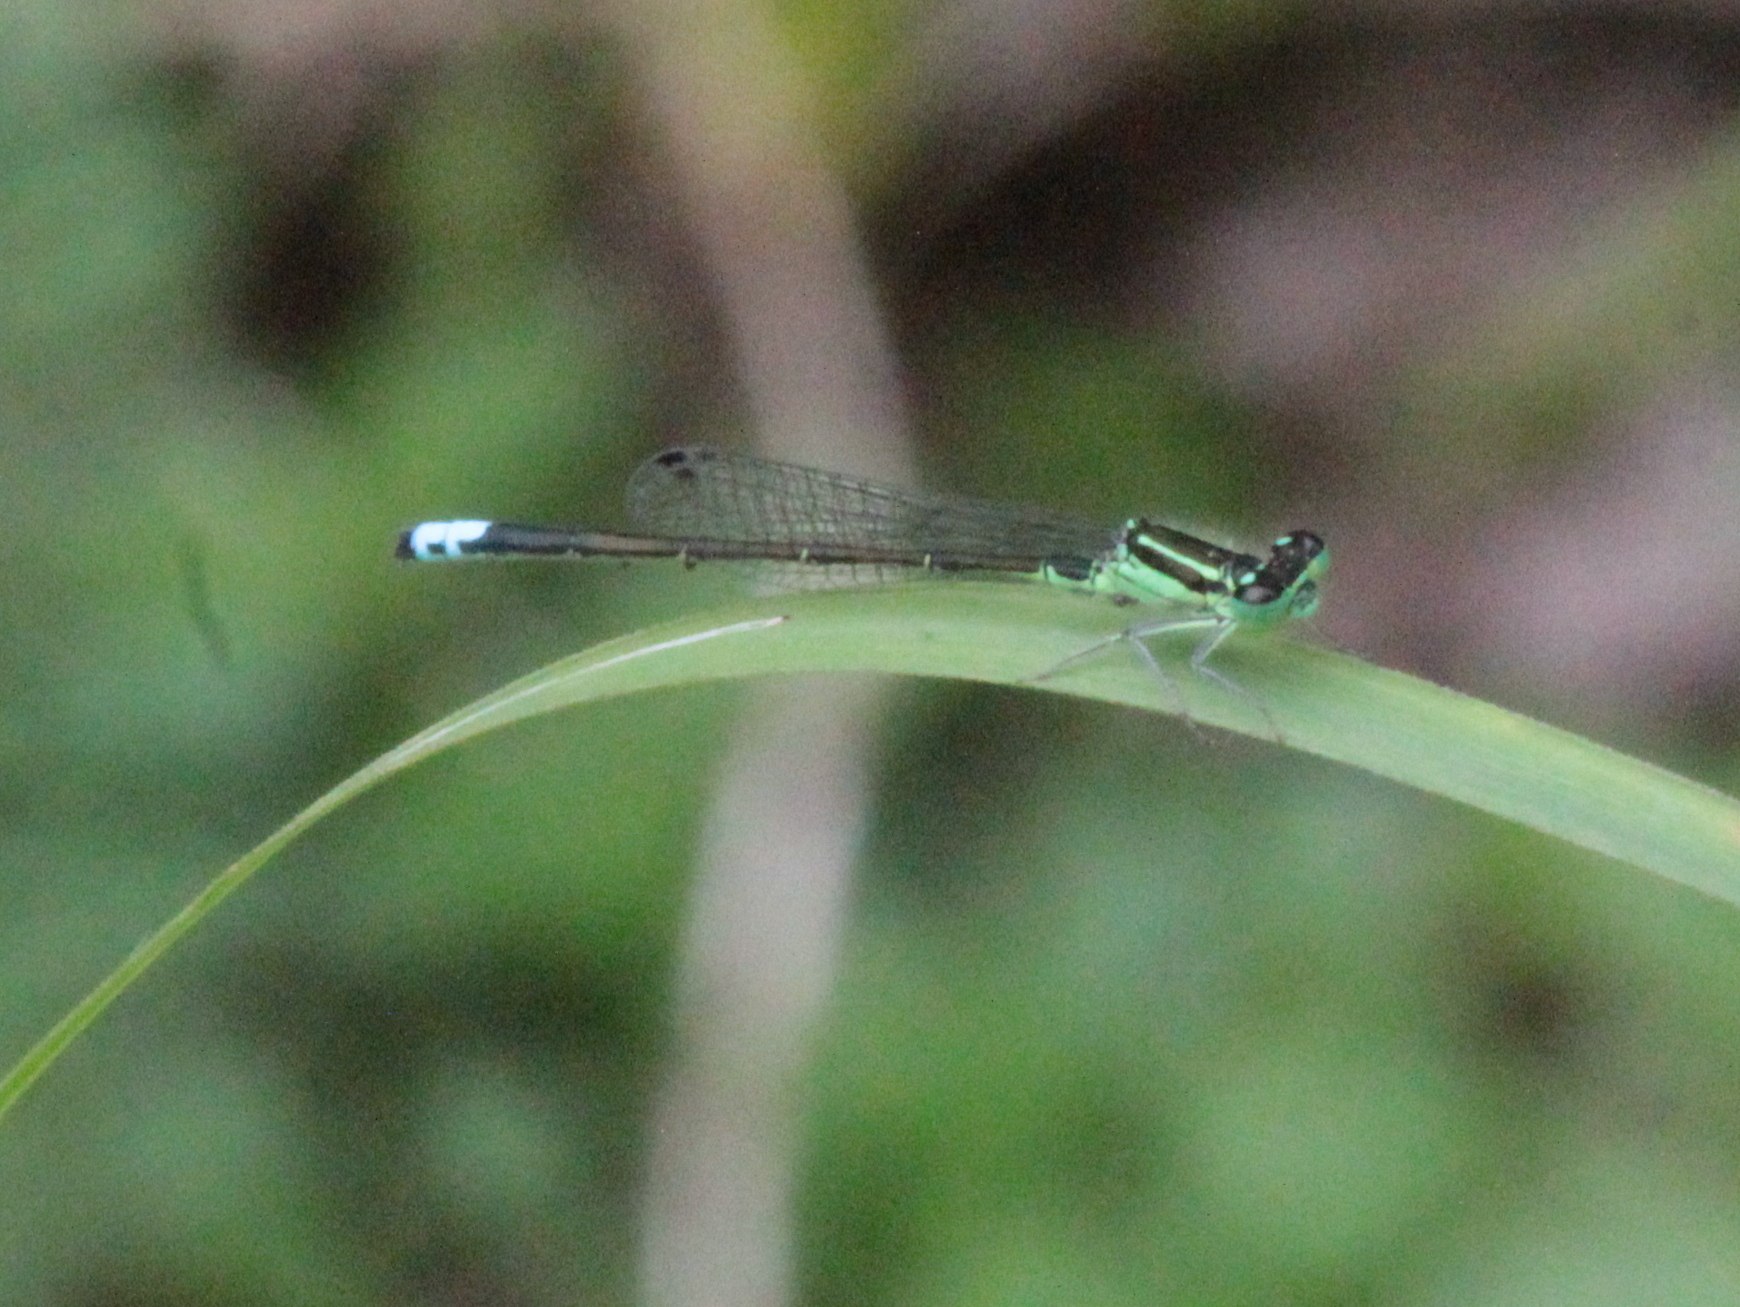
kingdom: Animalia
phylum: Arthropoda
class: Insecta
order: Odonata
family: Coenagrionidae
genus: Ischnura
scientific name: Ischnura verticalis
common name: Eastern forktail
